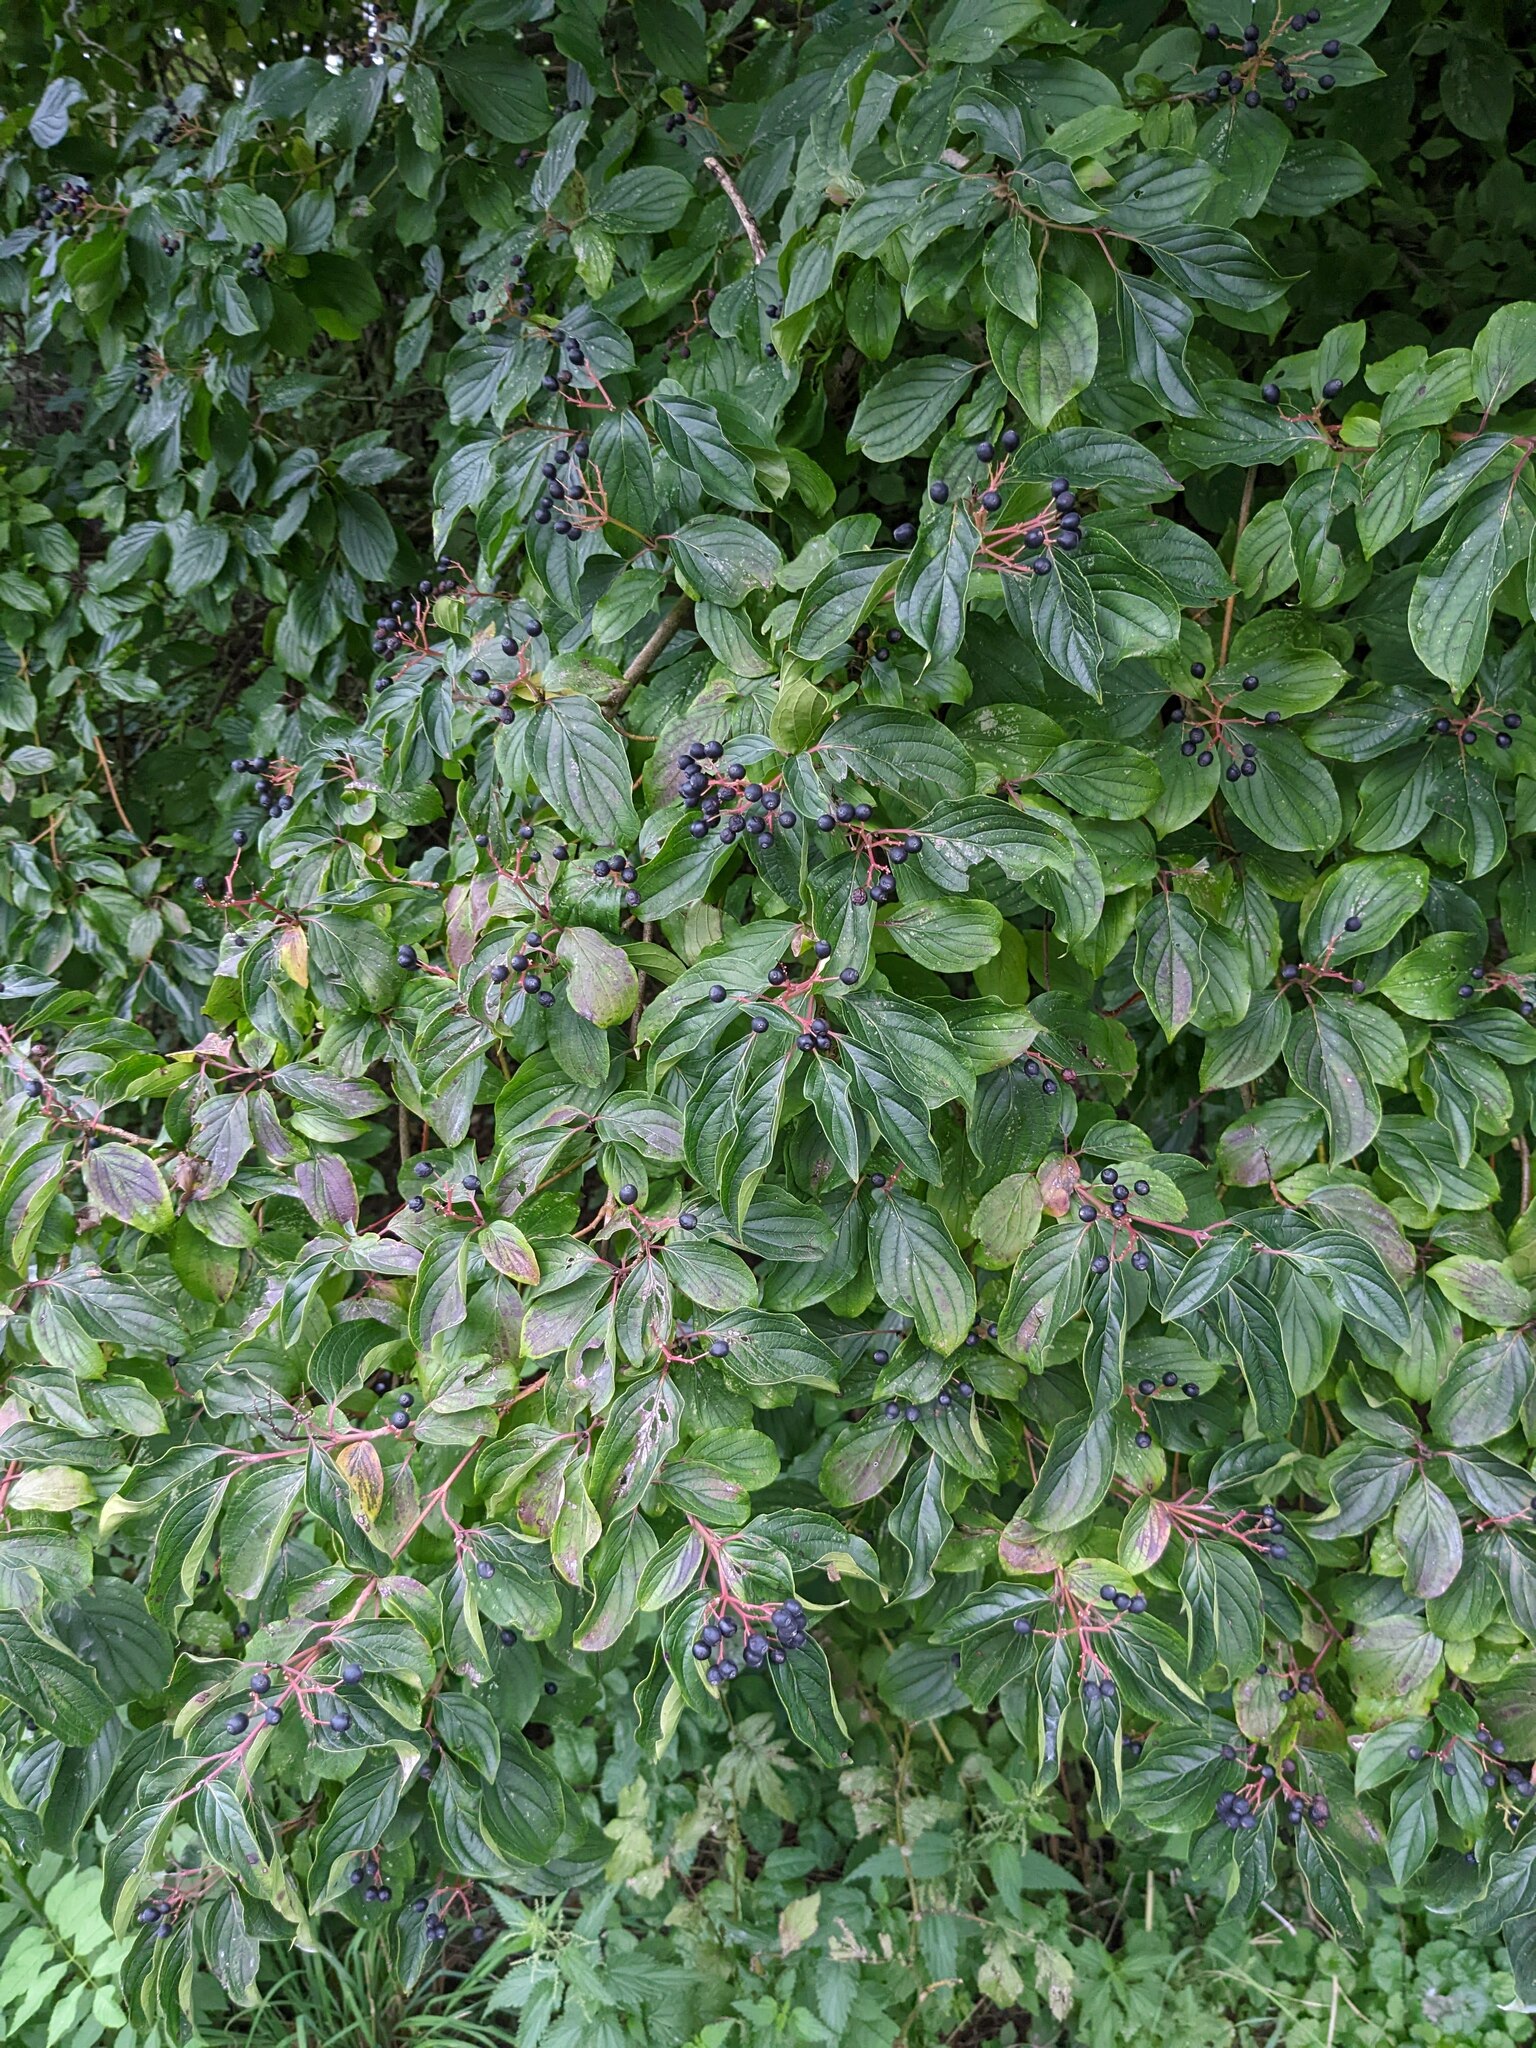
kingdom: Plantae
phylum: Tracheophyta
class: Magnoliopsida
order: Cornales
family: Cornaceae
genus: Cornus
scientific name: Cornus sanguinea
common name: Dogwood
